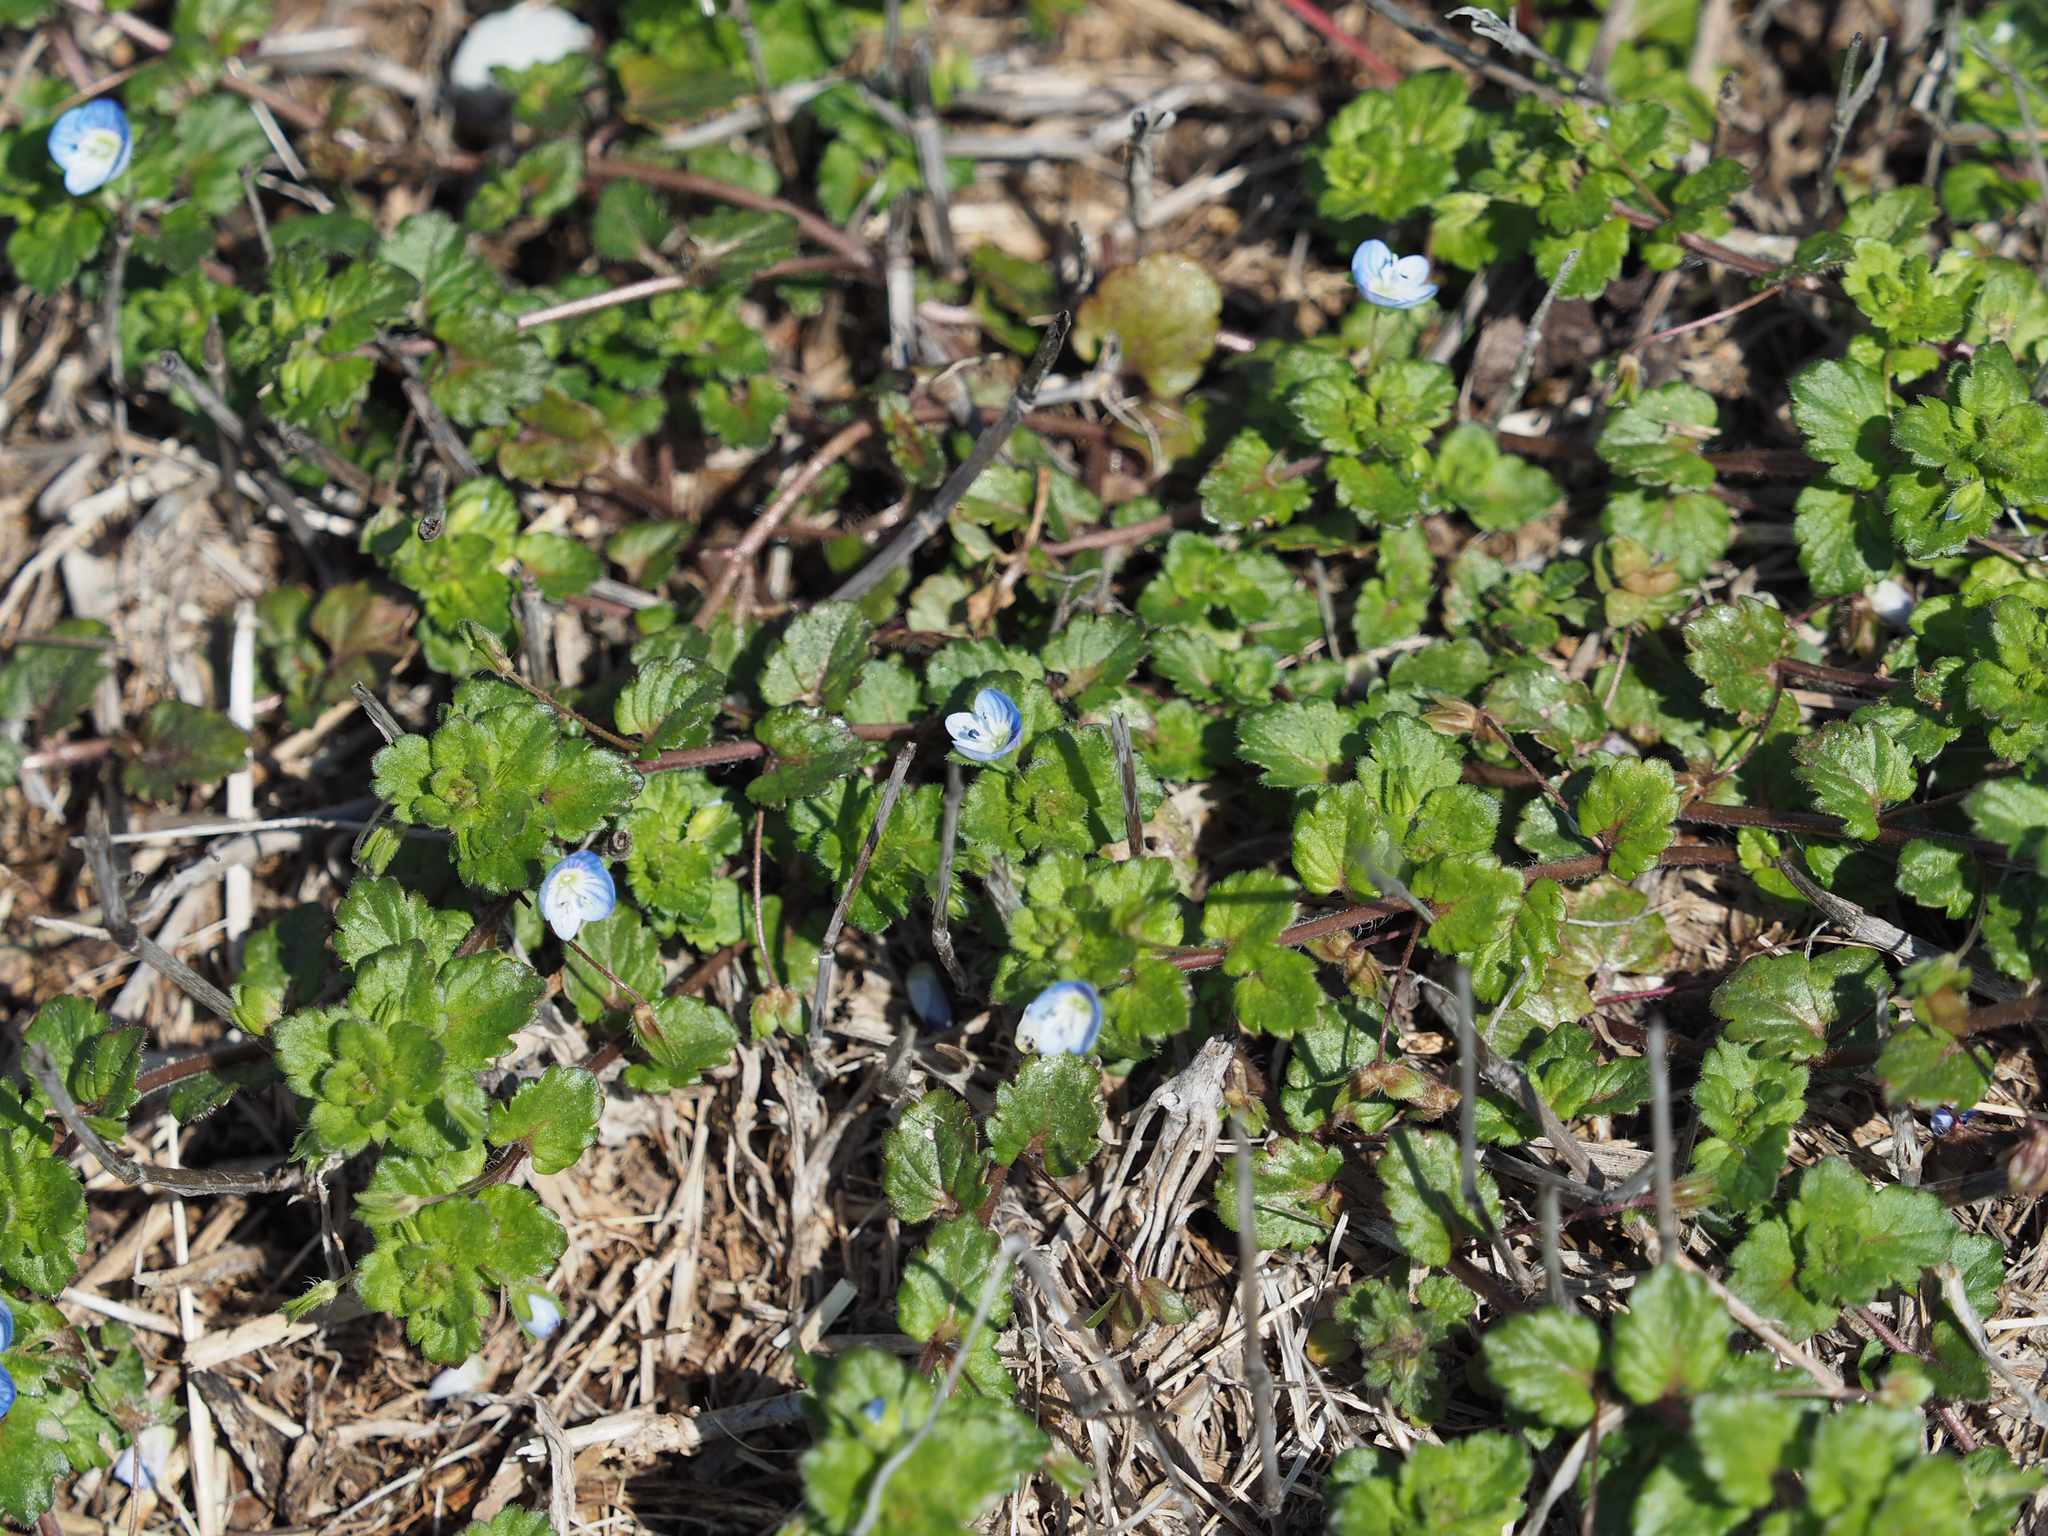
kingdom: Plantae
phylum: Tracheophyta
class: Magnoliopsida
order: Lamiales
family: Plantaginaceae
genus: Veronica
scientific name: Veronica persica
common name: Common field-speedwell
